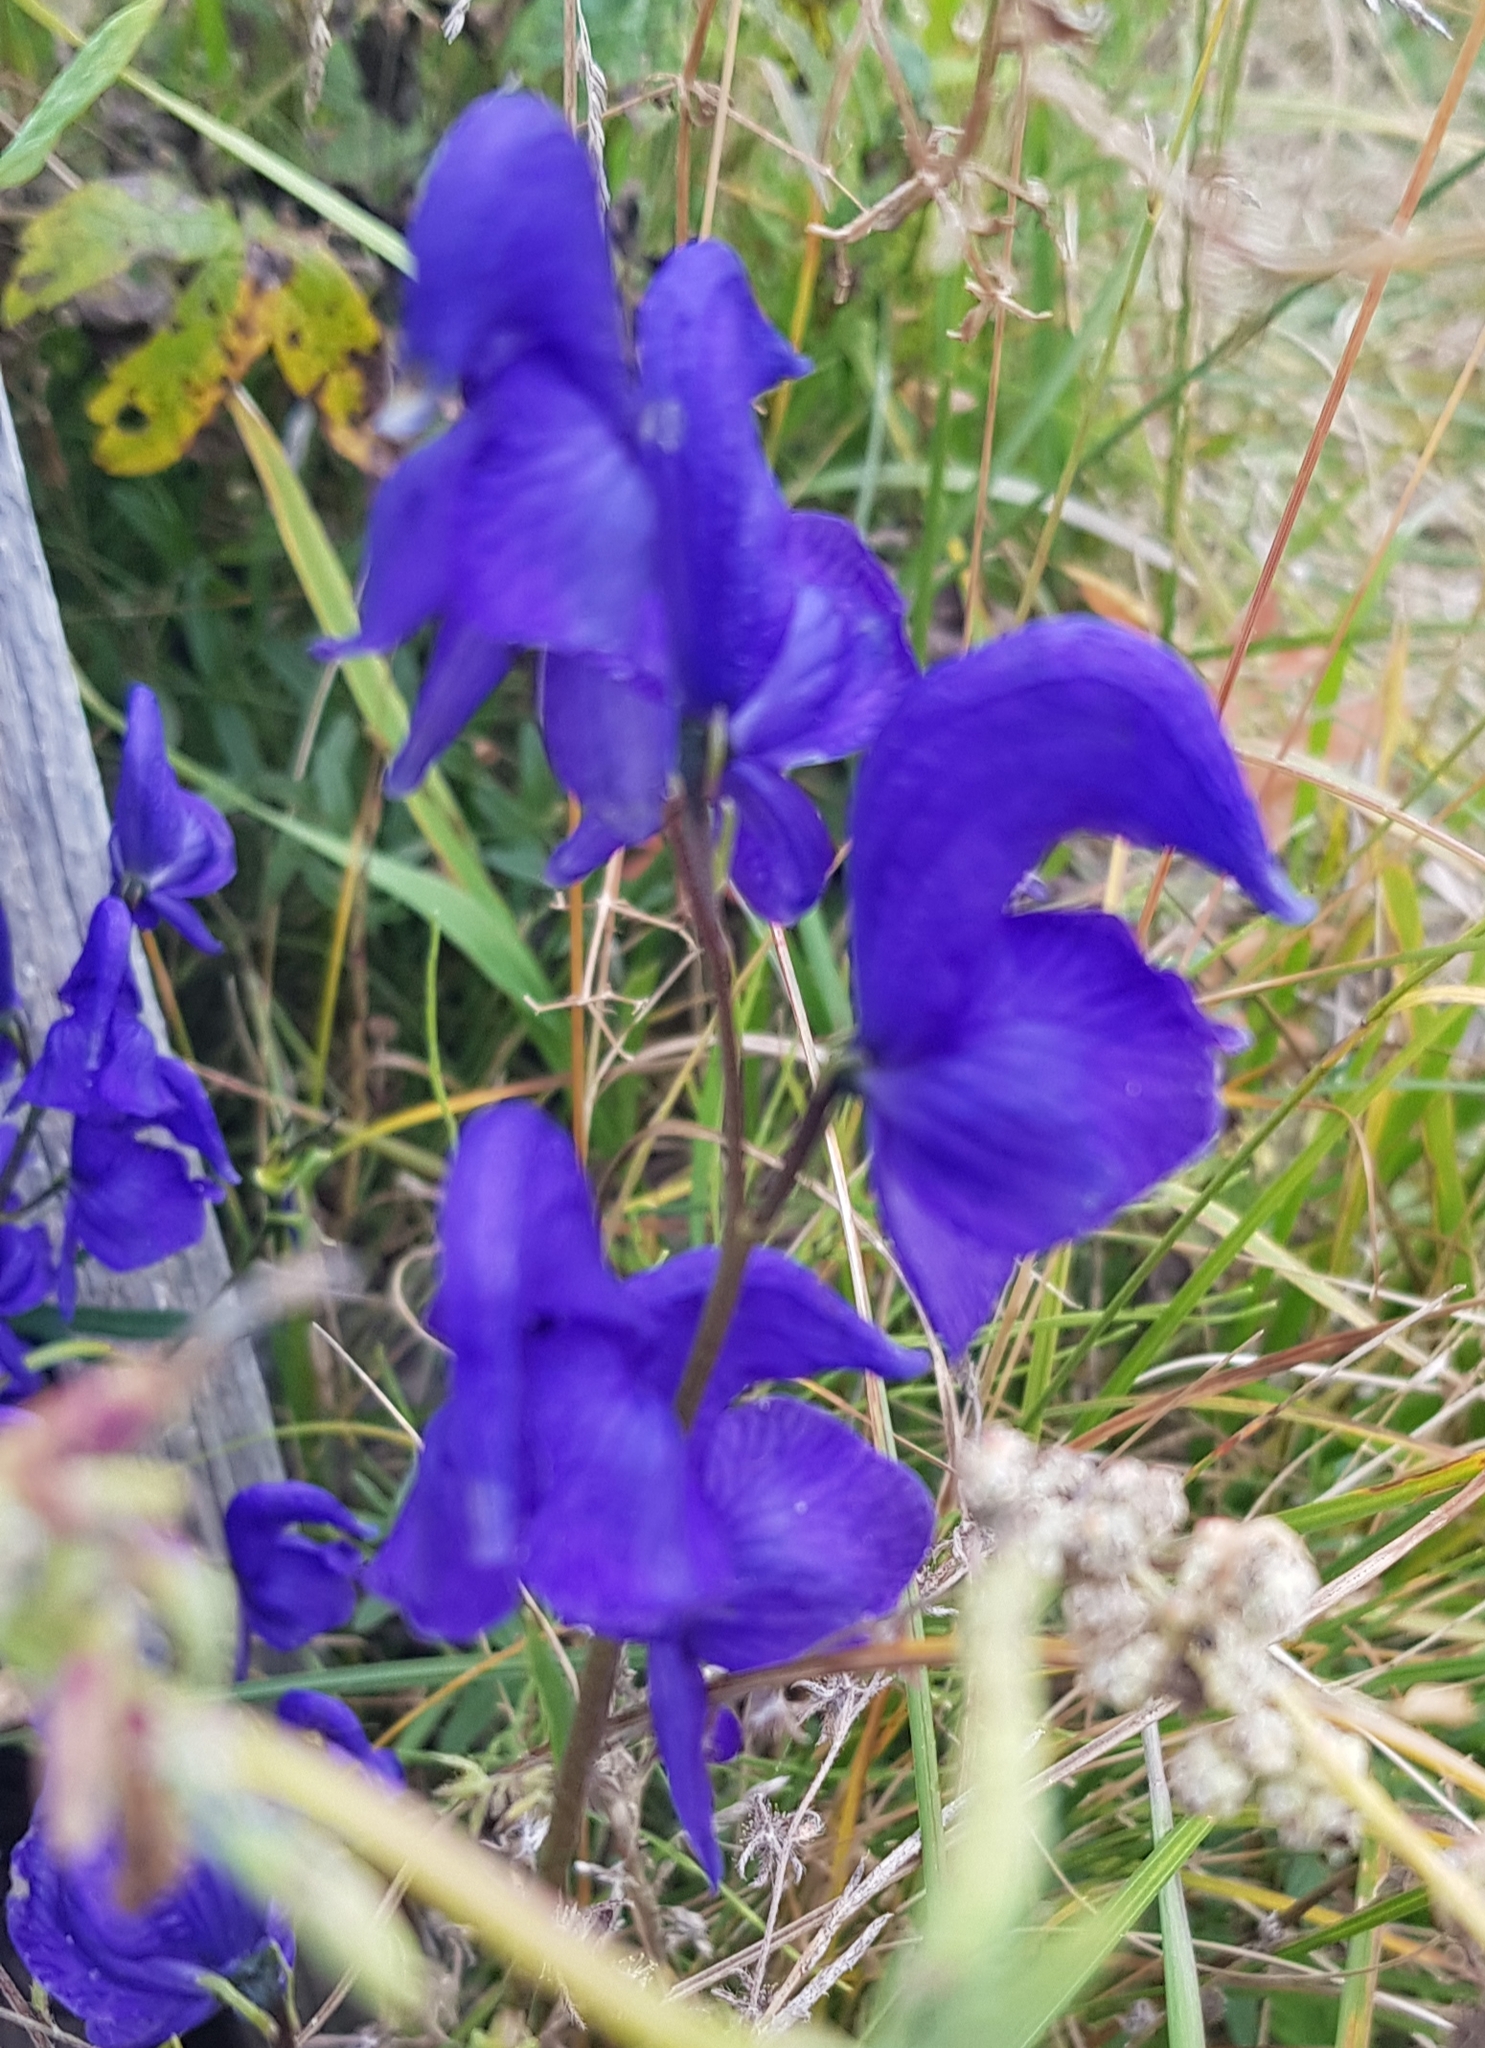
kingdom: Plantae
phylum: Tracheophyta
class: Magnoliopsida
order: Ranunculales
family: Ranunculaceae
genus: Aconitum
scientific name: Aconitum baicalense
